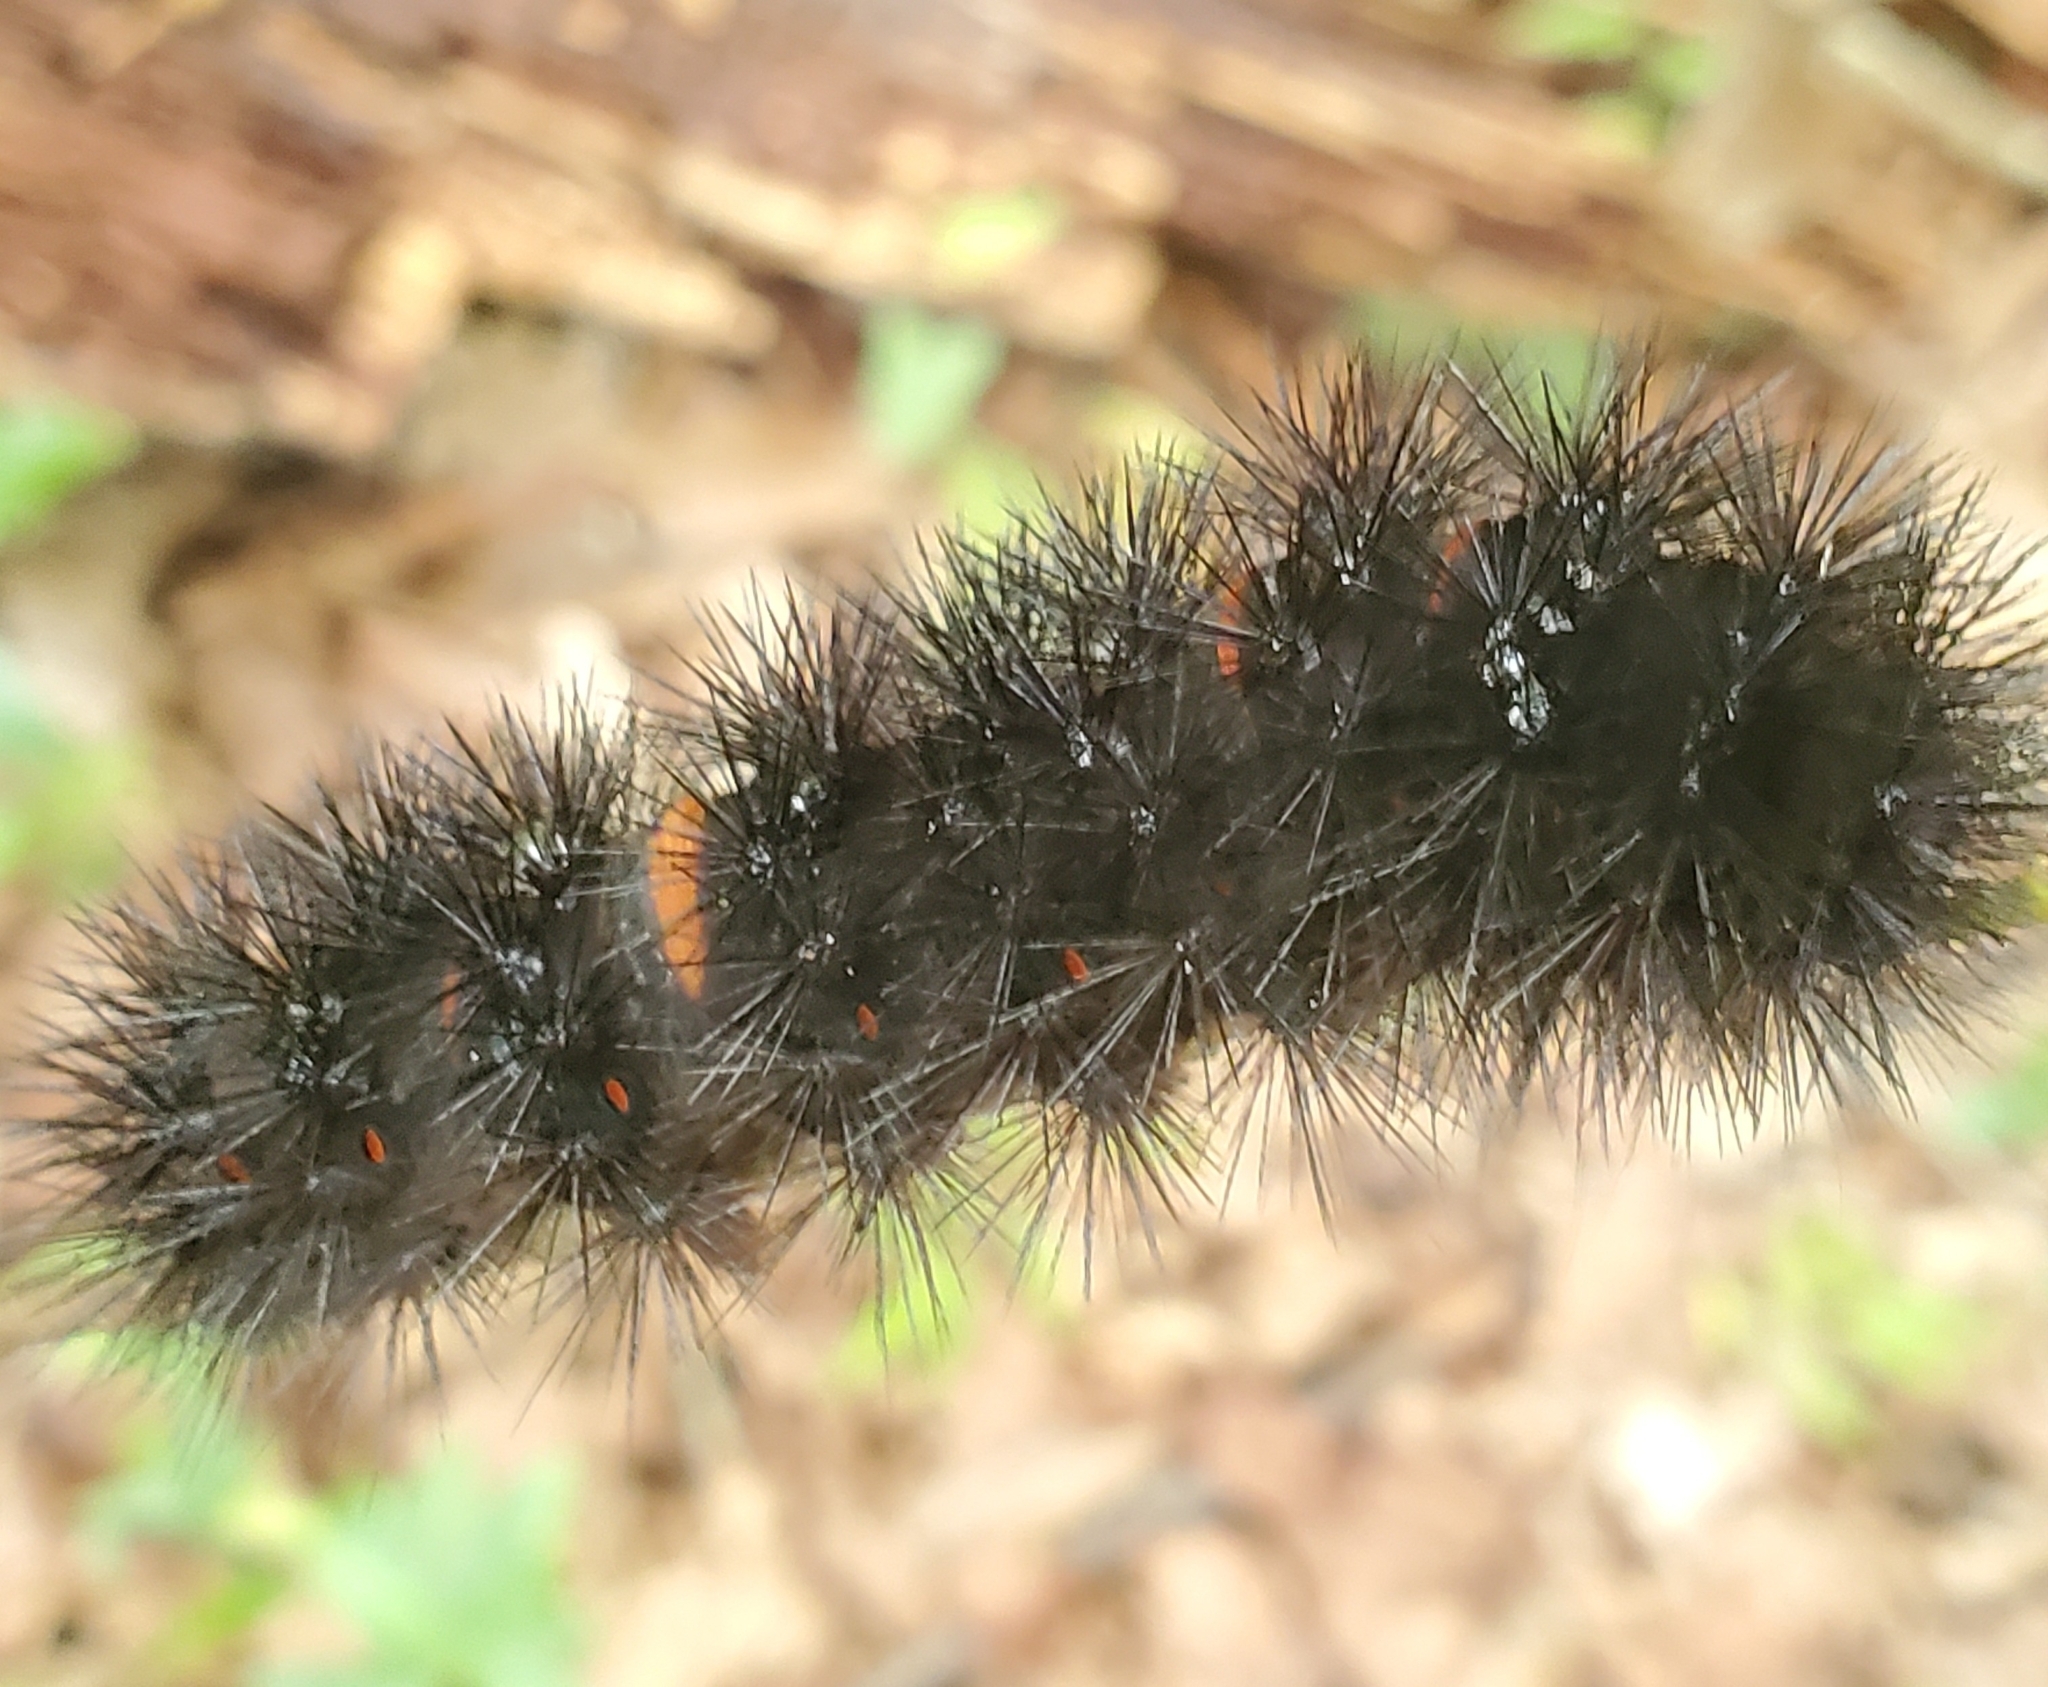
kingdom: Animalia
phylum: Arthropoda
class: Insecta
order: Lepidoptera
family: Erebidae
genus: Hypercompe
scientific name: Hypercompe scribonia
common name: Giant leopard moth
